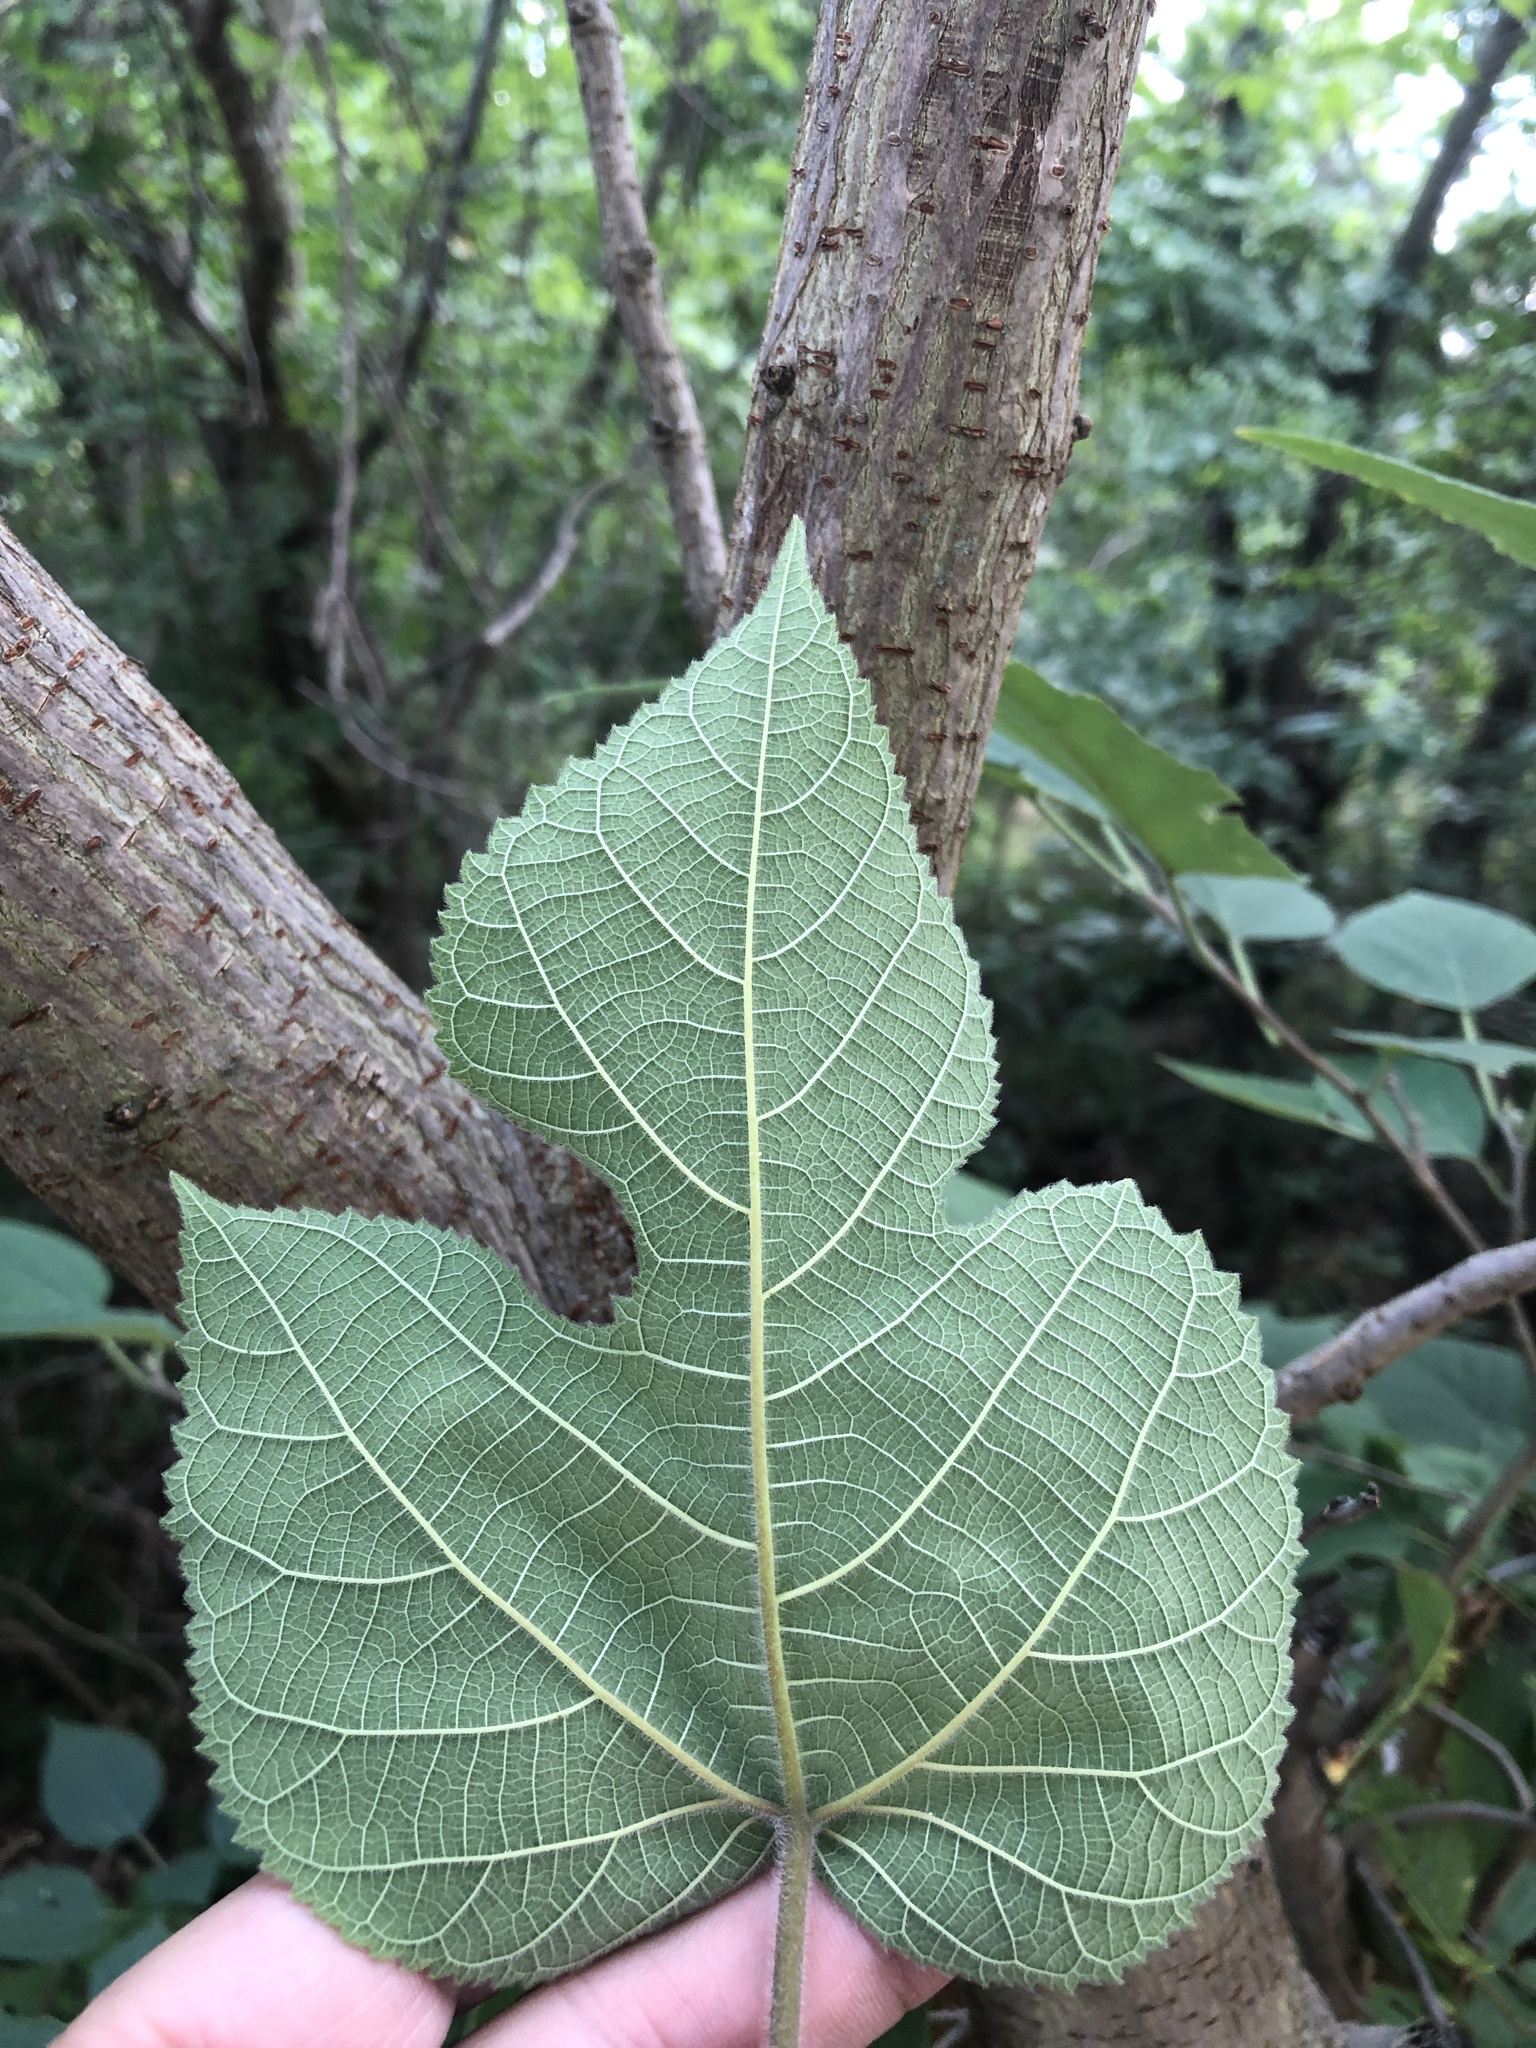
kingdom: Plantae
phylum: Tracheophyta
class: Magnoliopsida
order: Rosales
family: Moraceae
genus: Broussonetia
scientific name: Broussonetia papyrifera
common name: Paper mulberry
